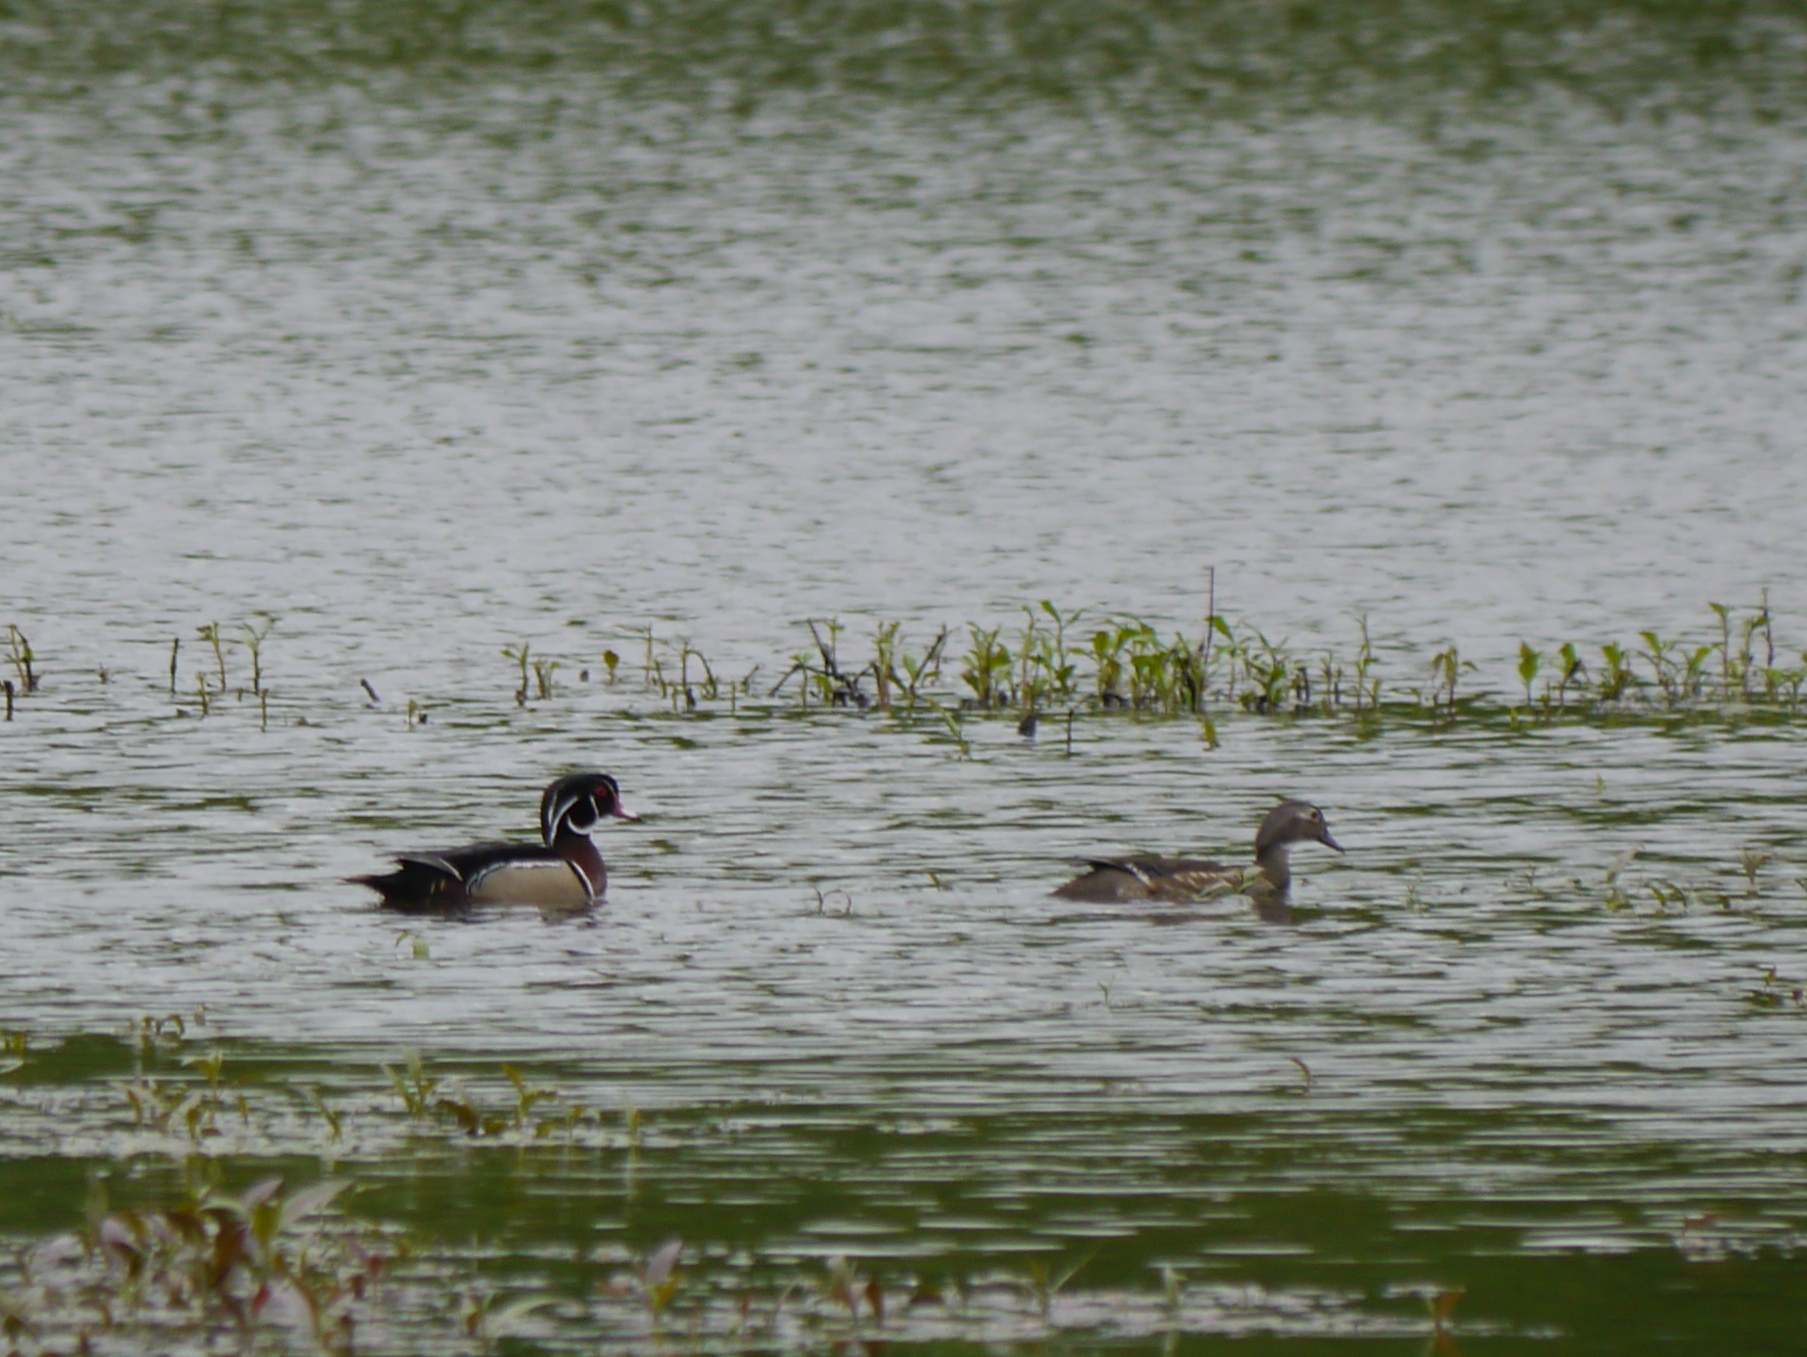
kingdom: Animalia
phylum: Chordata
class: Aves
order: Anseriformes
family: Anatidae
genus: Aix
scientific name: Aix sponsa
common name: Wood duck
